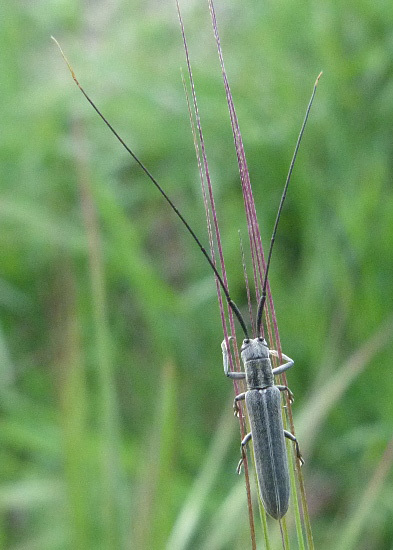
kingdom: Animalia
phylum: Arthropoda
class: Insecta
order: Coleoptera
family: Cerambycidae
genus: Calamobius
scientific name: Calamobius filum
